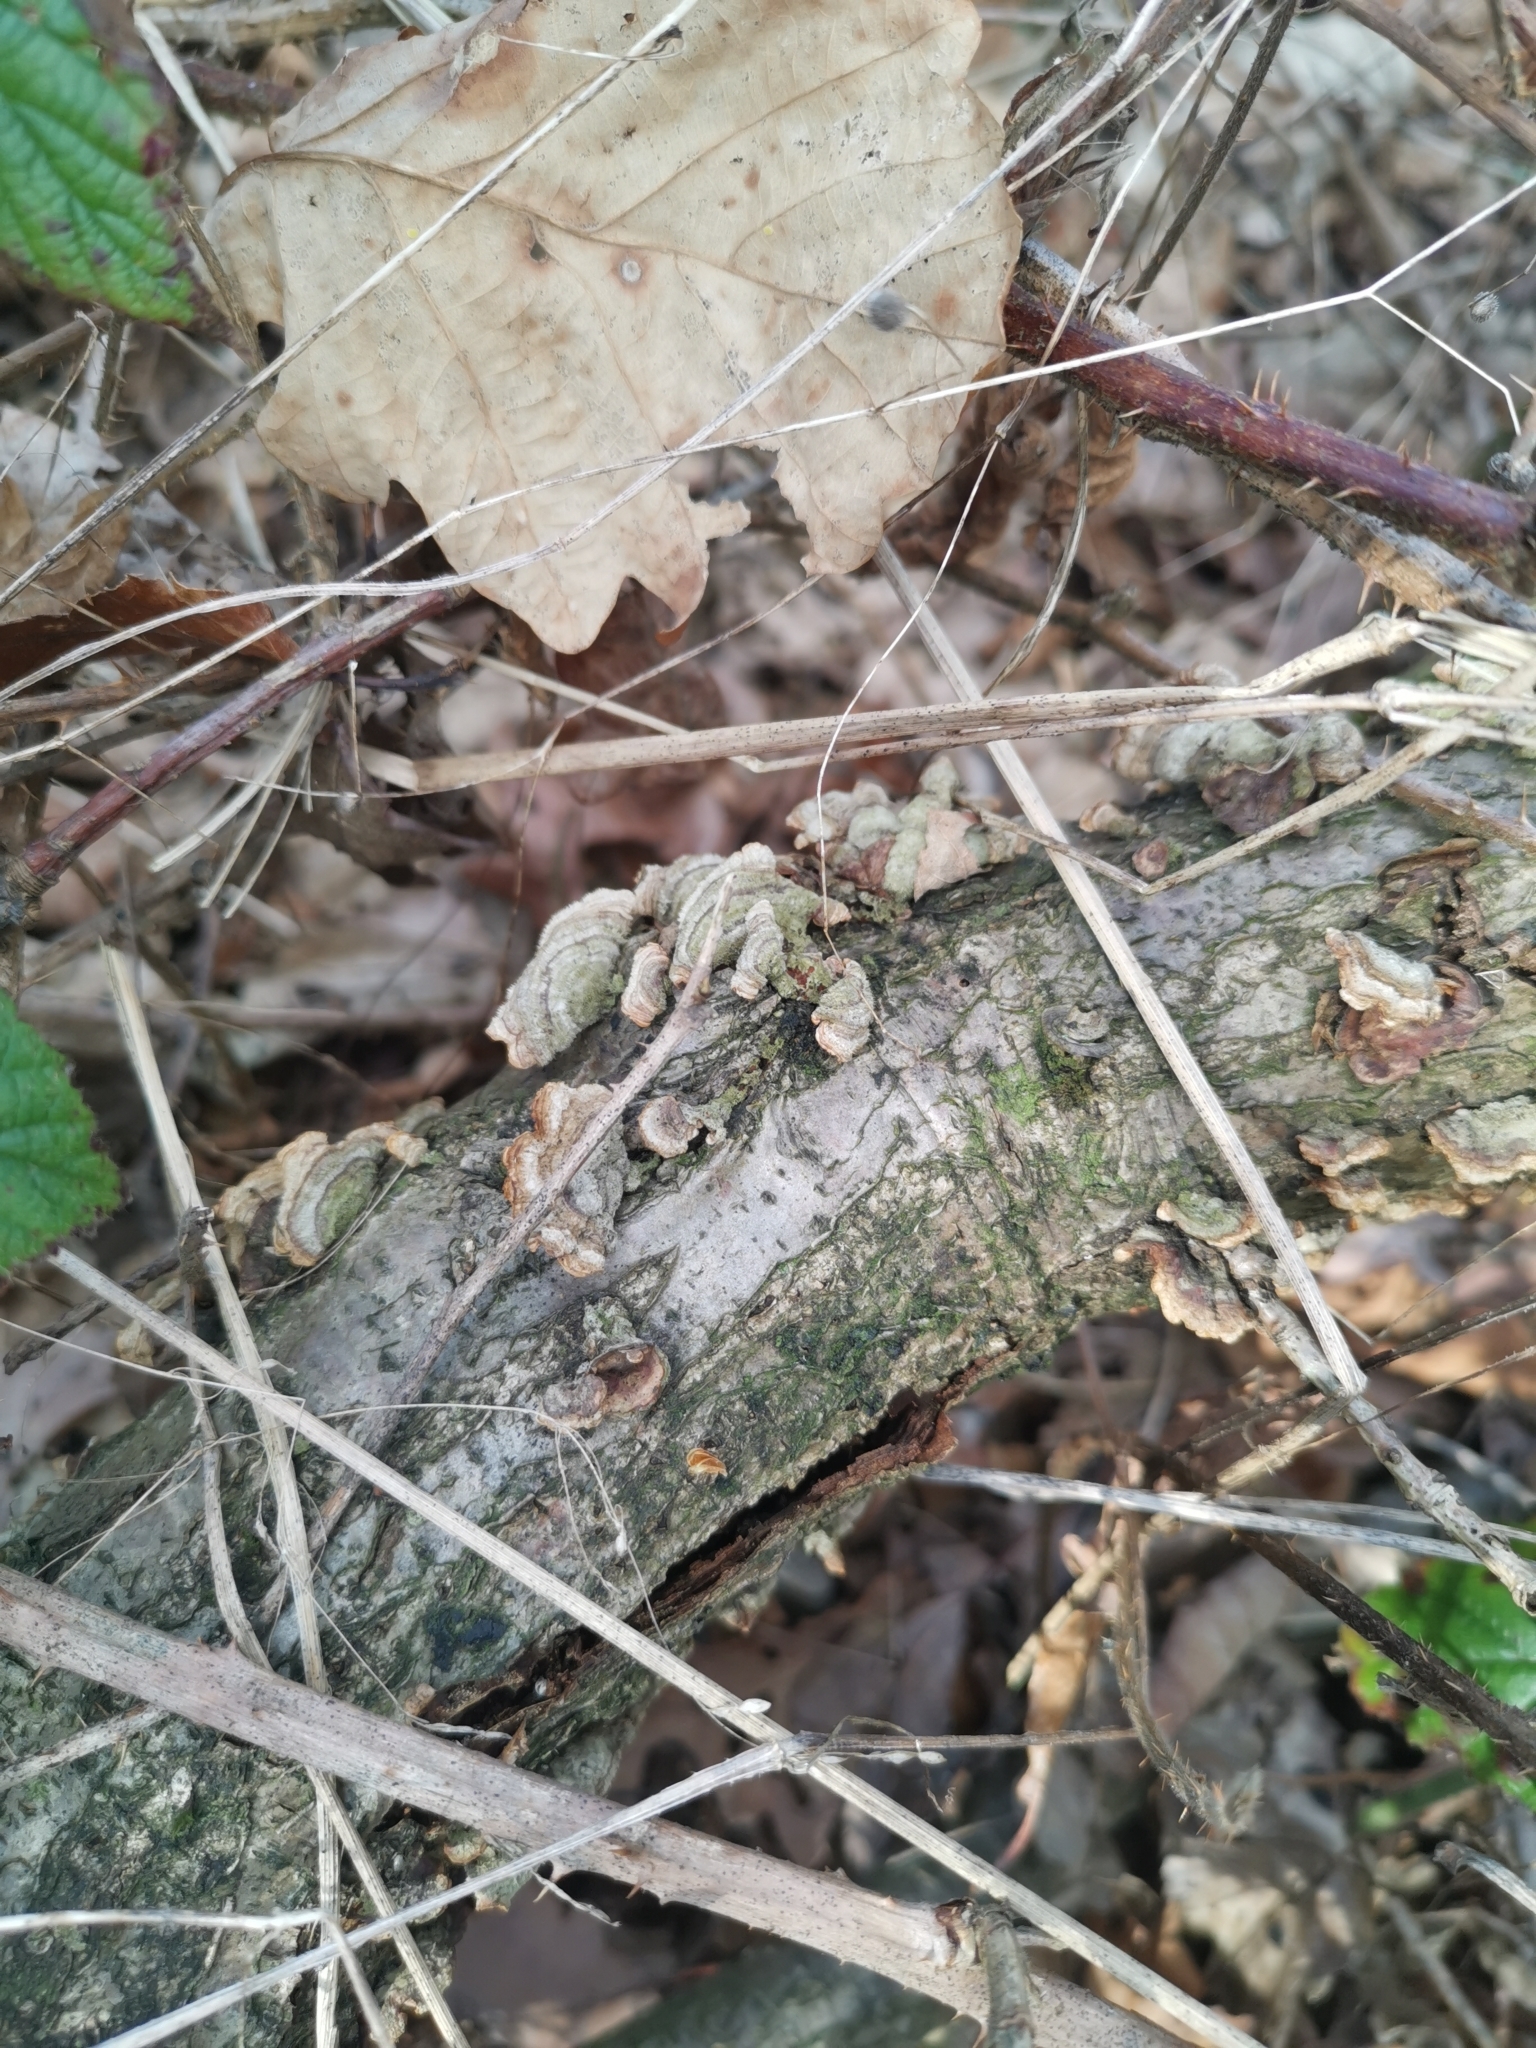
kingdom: Fungi
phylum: Basidiomycota
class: Agaricomycetes
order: Polyporales
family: Polyporaceae
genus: Trametes
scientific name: Trametes versicolor
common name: Turkeytail
